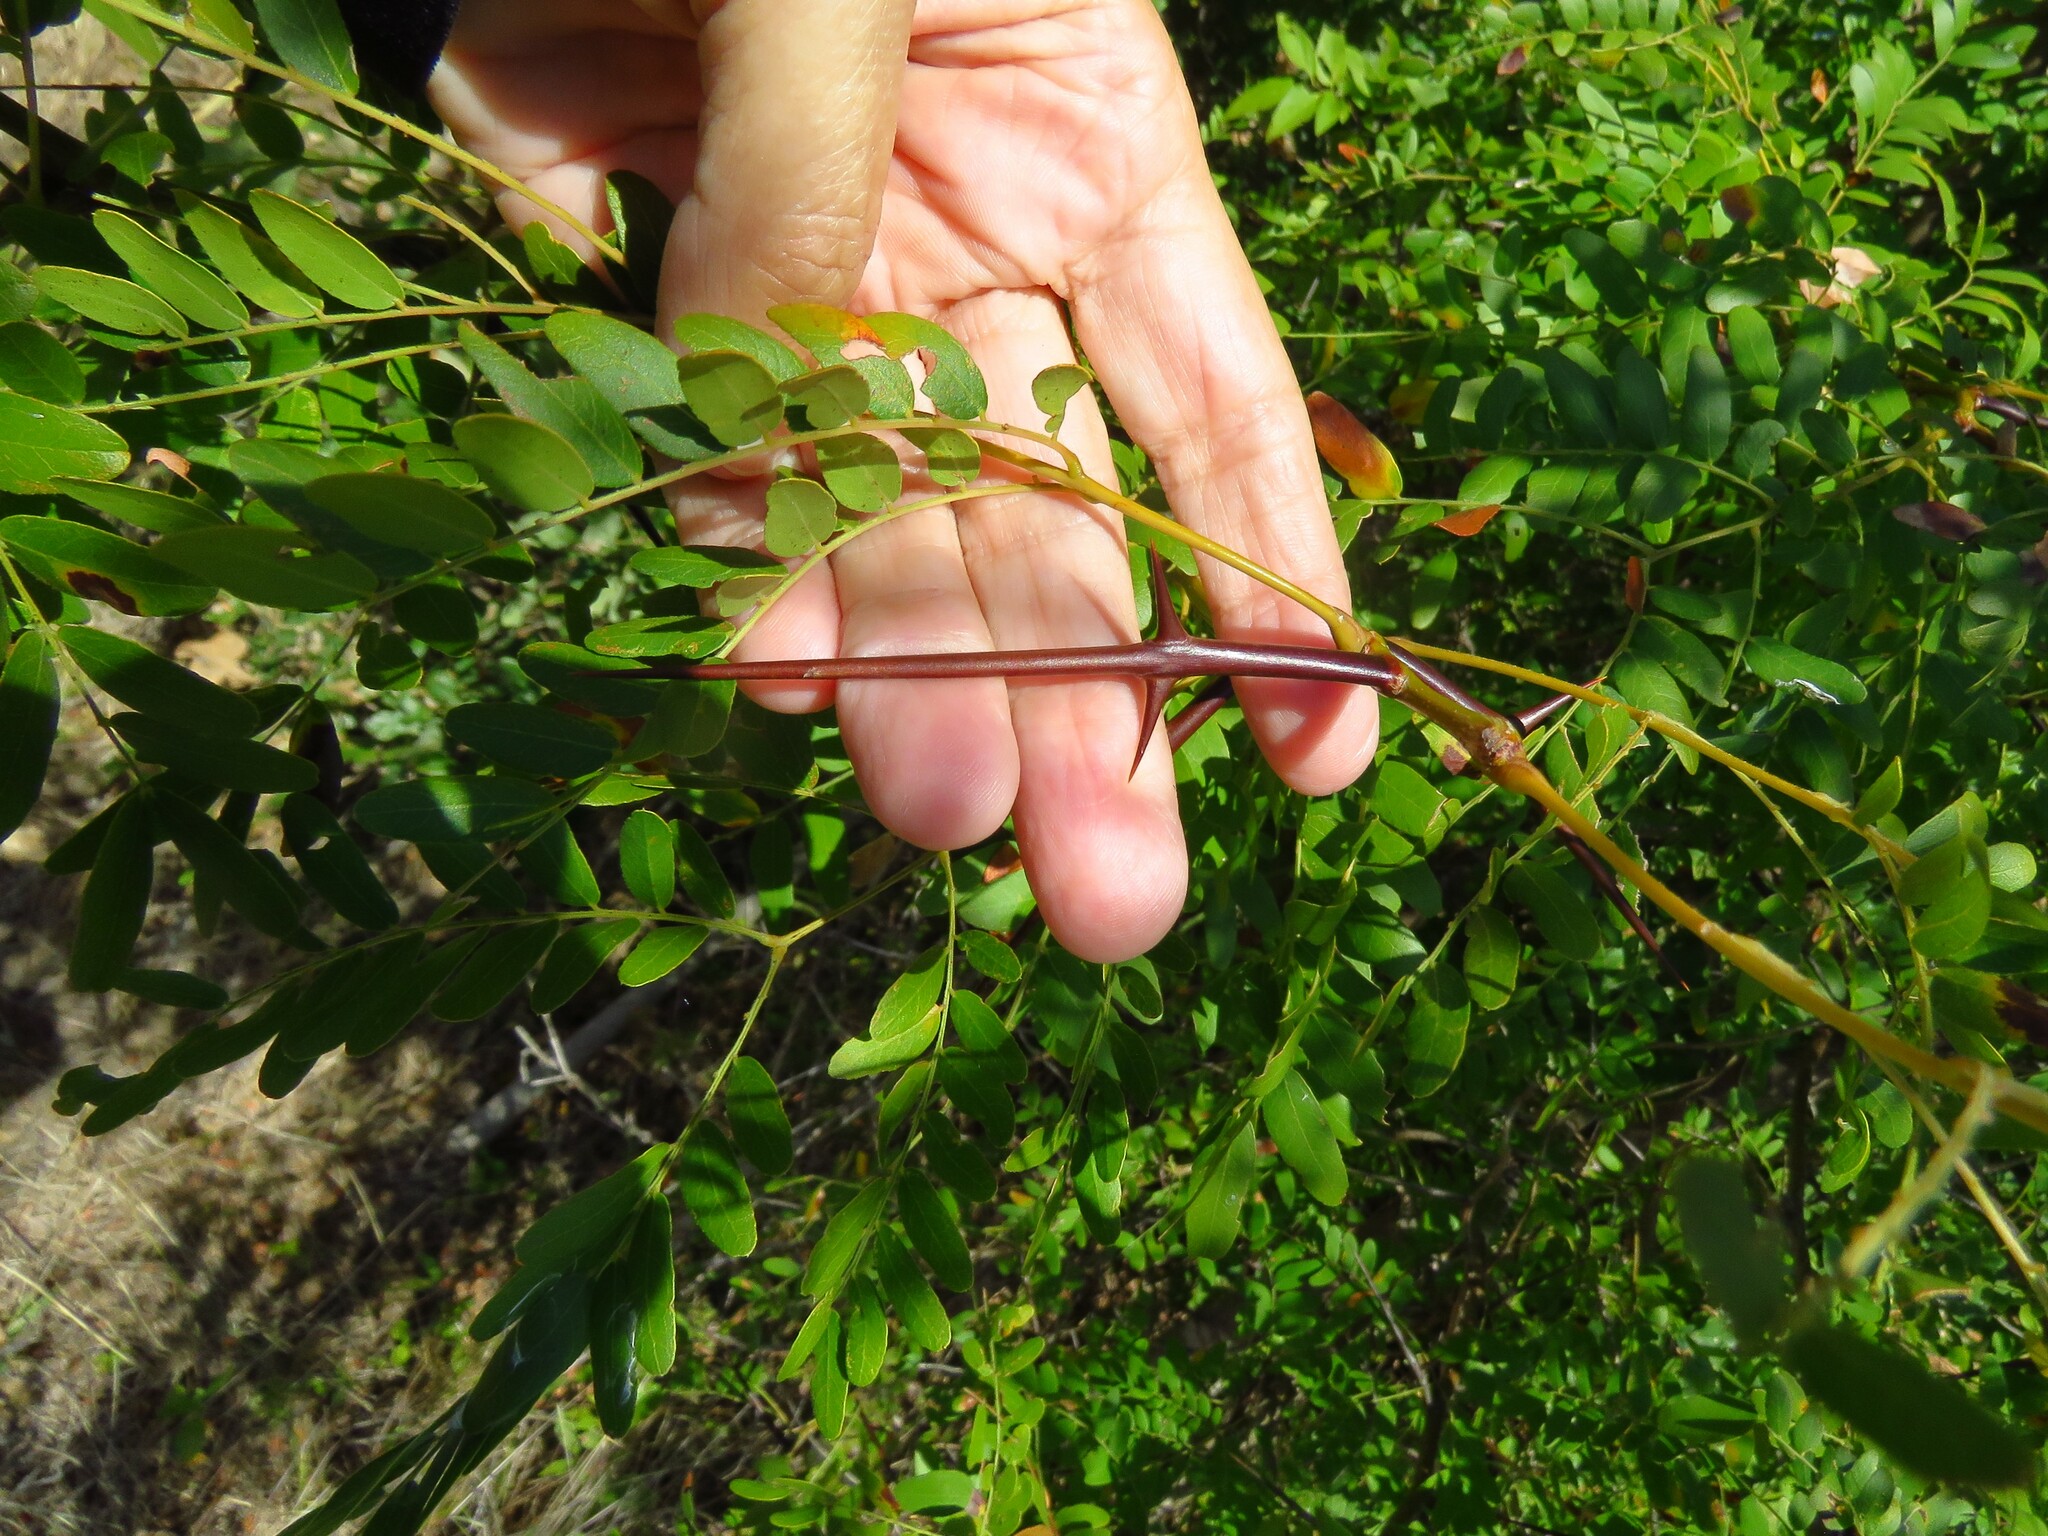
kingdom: Plantae
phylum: Tracheophyta
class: Magnoliopsida
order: Fabales
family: Fabaceae
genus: Gleditsia
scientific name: Gleditsia triacanthos
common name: Common honeylocust
